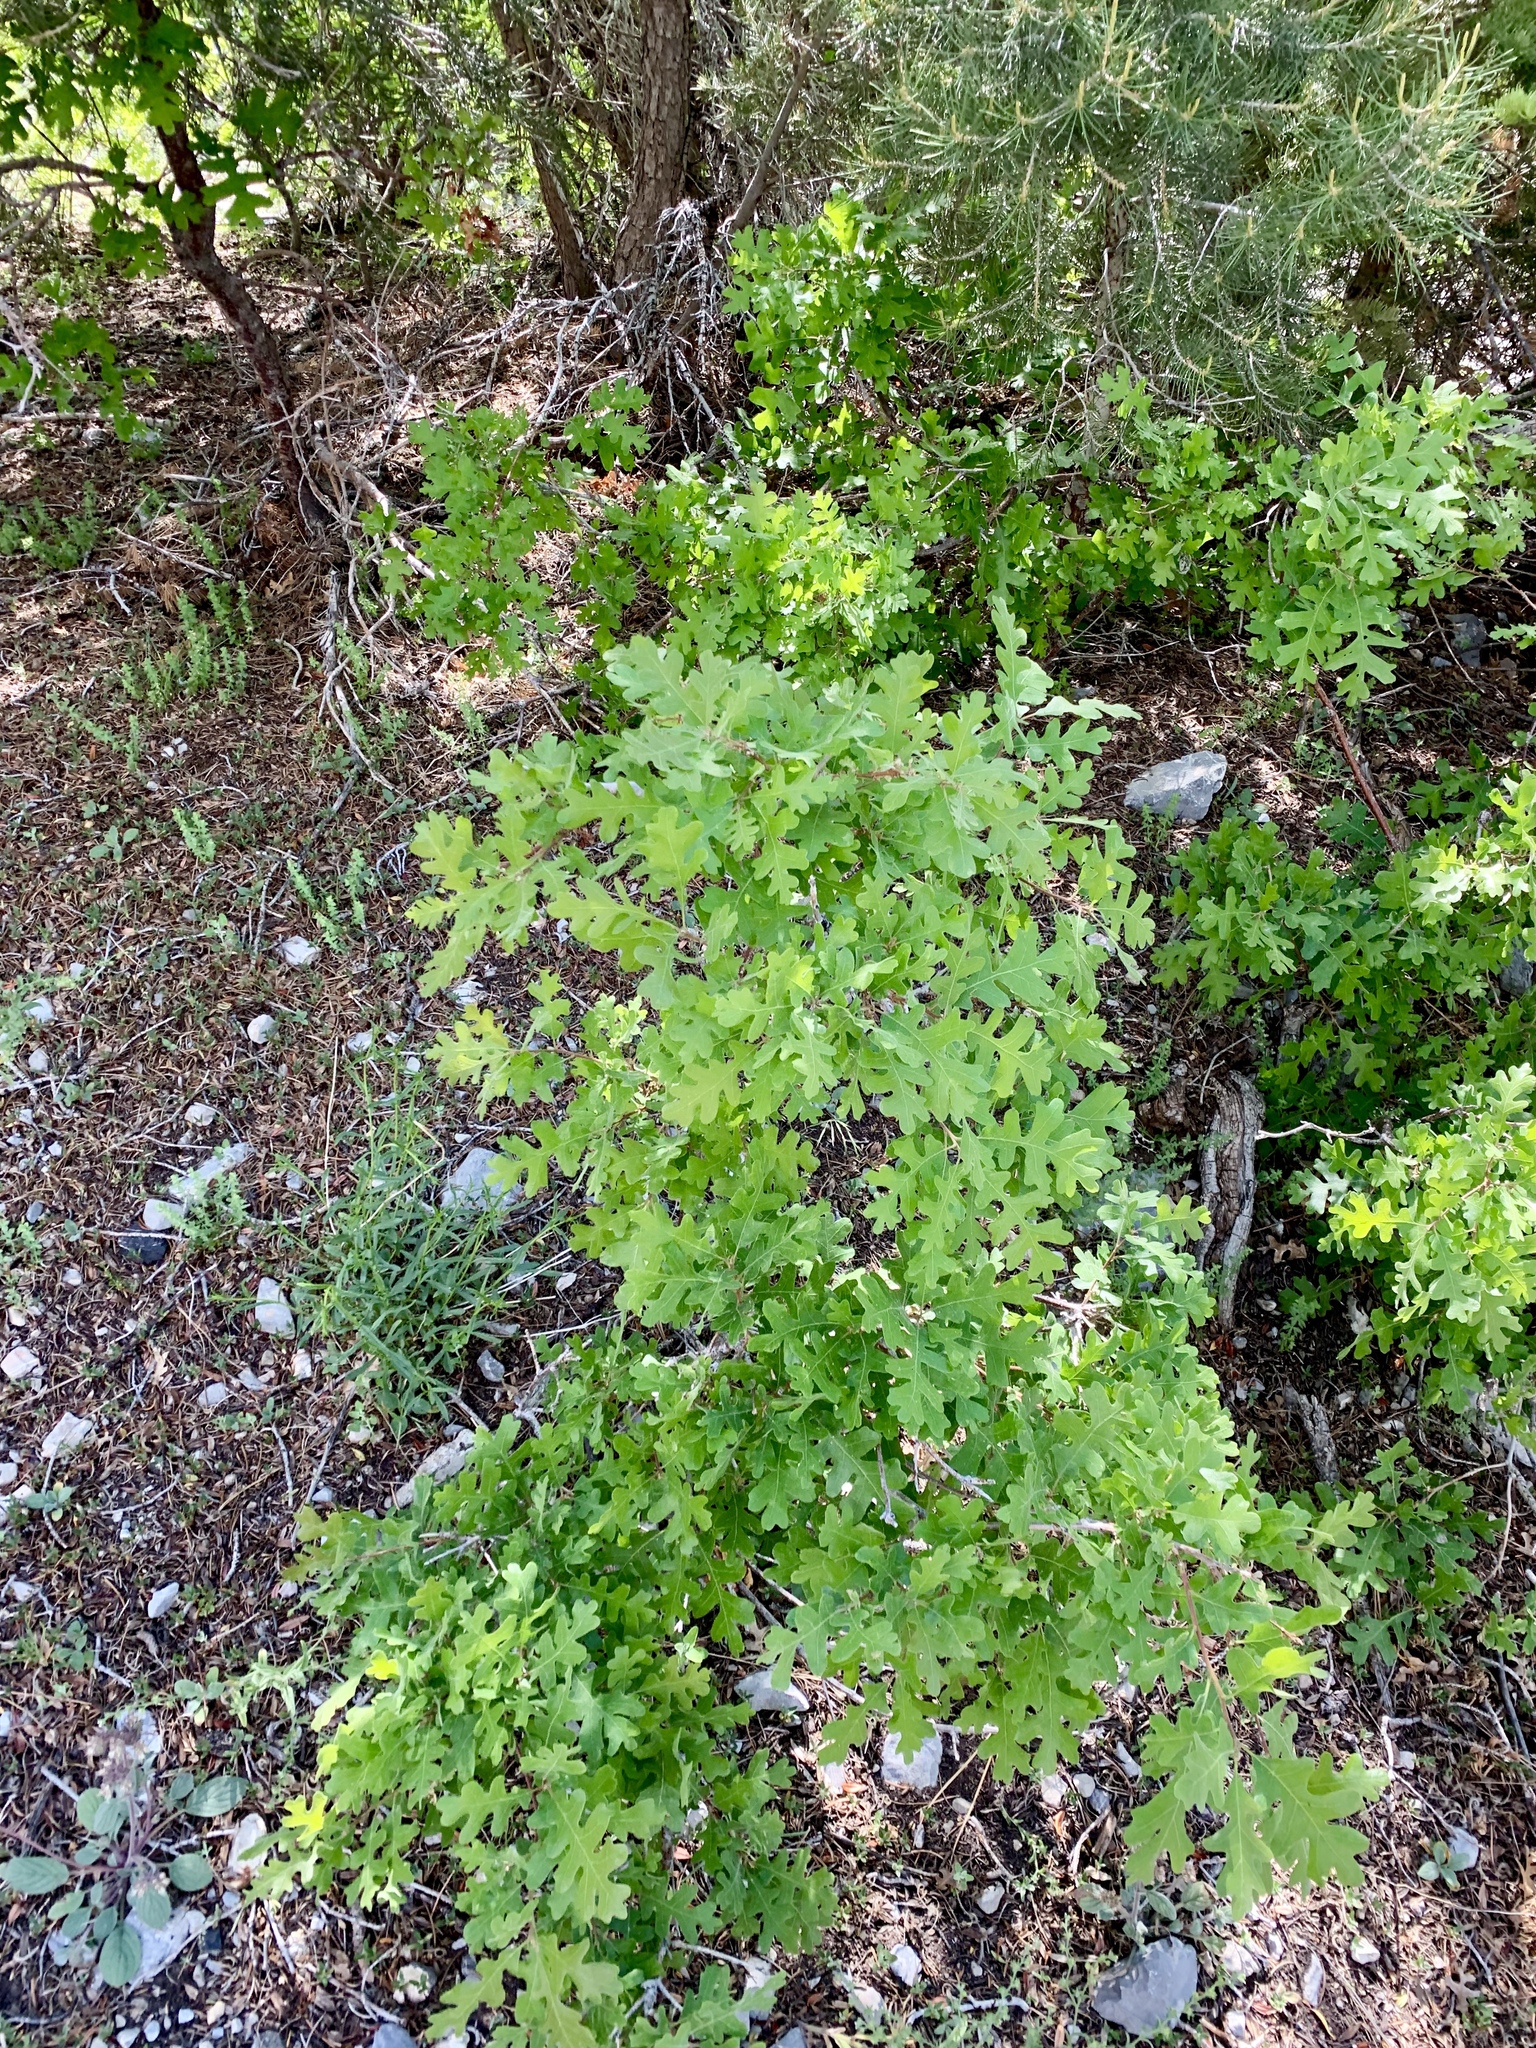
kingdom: Plantae
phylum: Tracheophyta
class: Magnoliopsida
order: Fagales
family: Fagaceae
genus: Quercus
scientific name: Quercus gambelii
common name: Gambel oak
